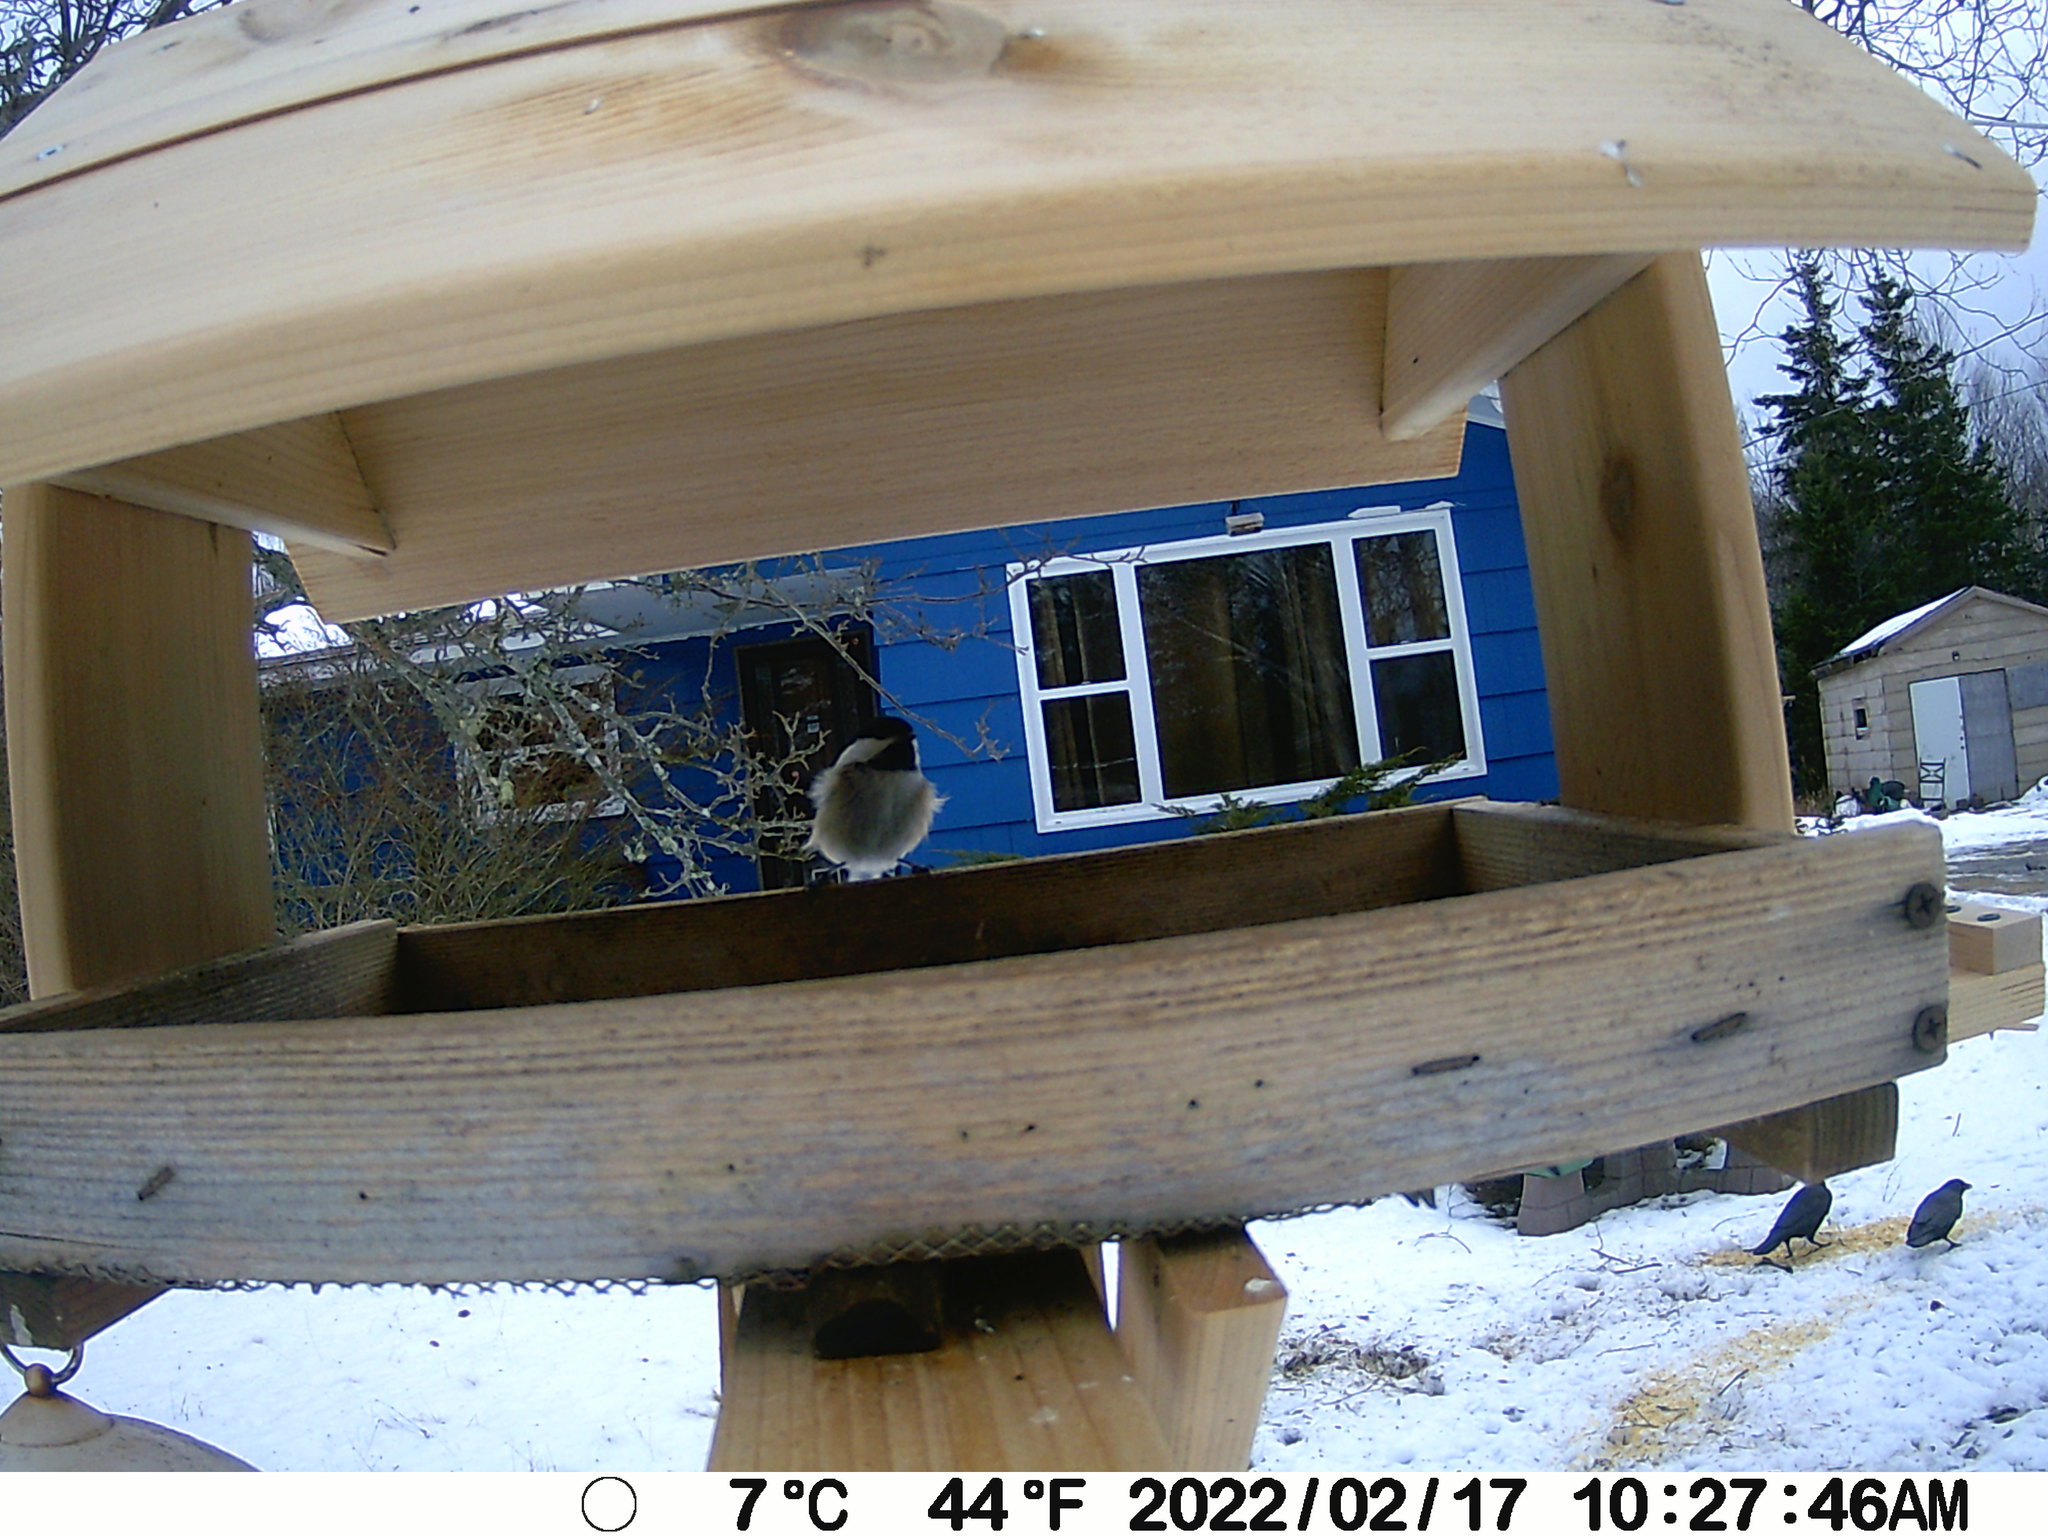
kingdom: Animalia
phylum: Chordata
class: Aves
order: Passeriformes
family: Paridae
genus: Poecile
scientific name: Poecile atricapillus
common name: Black-capped chickadee
